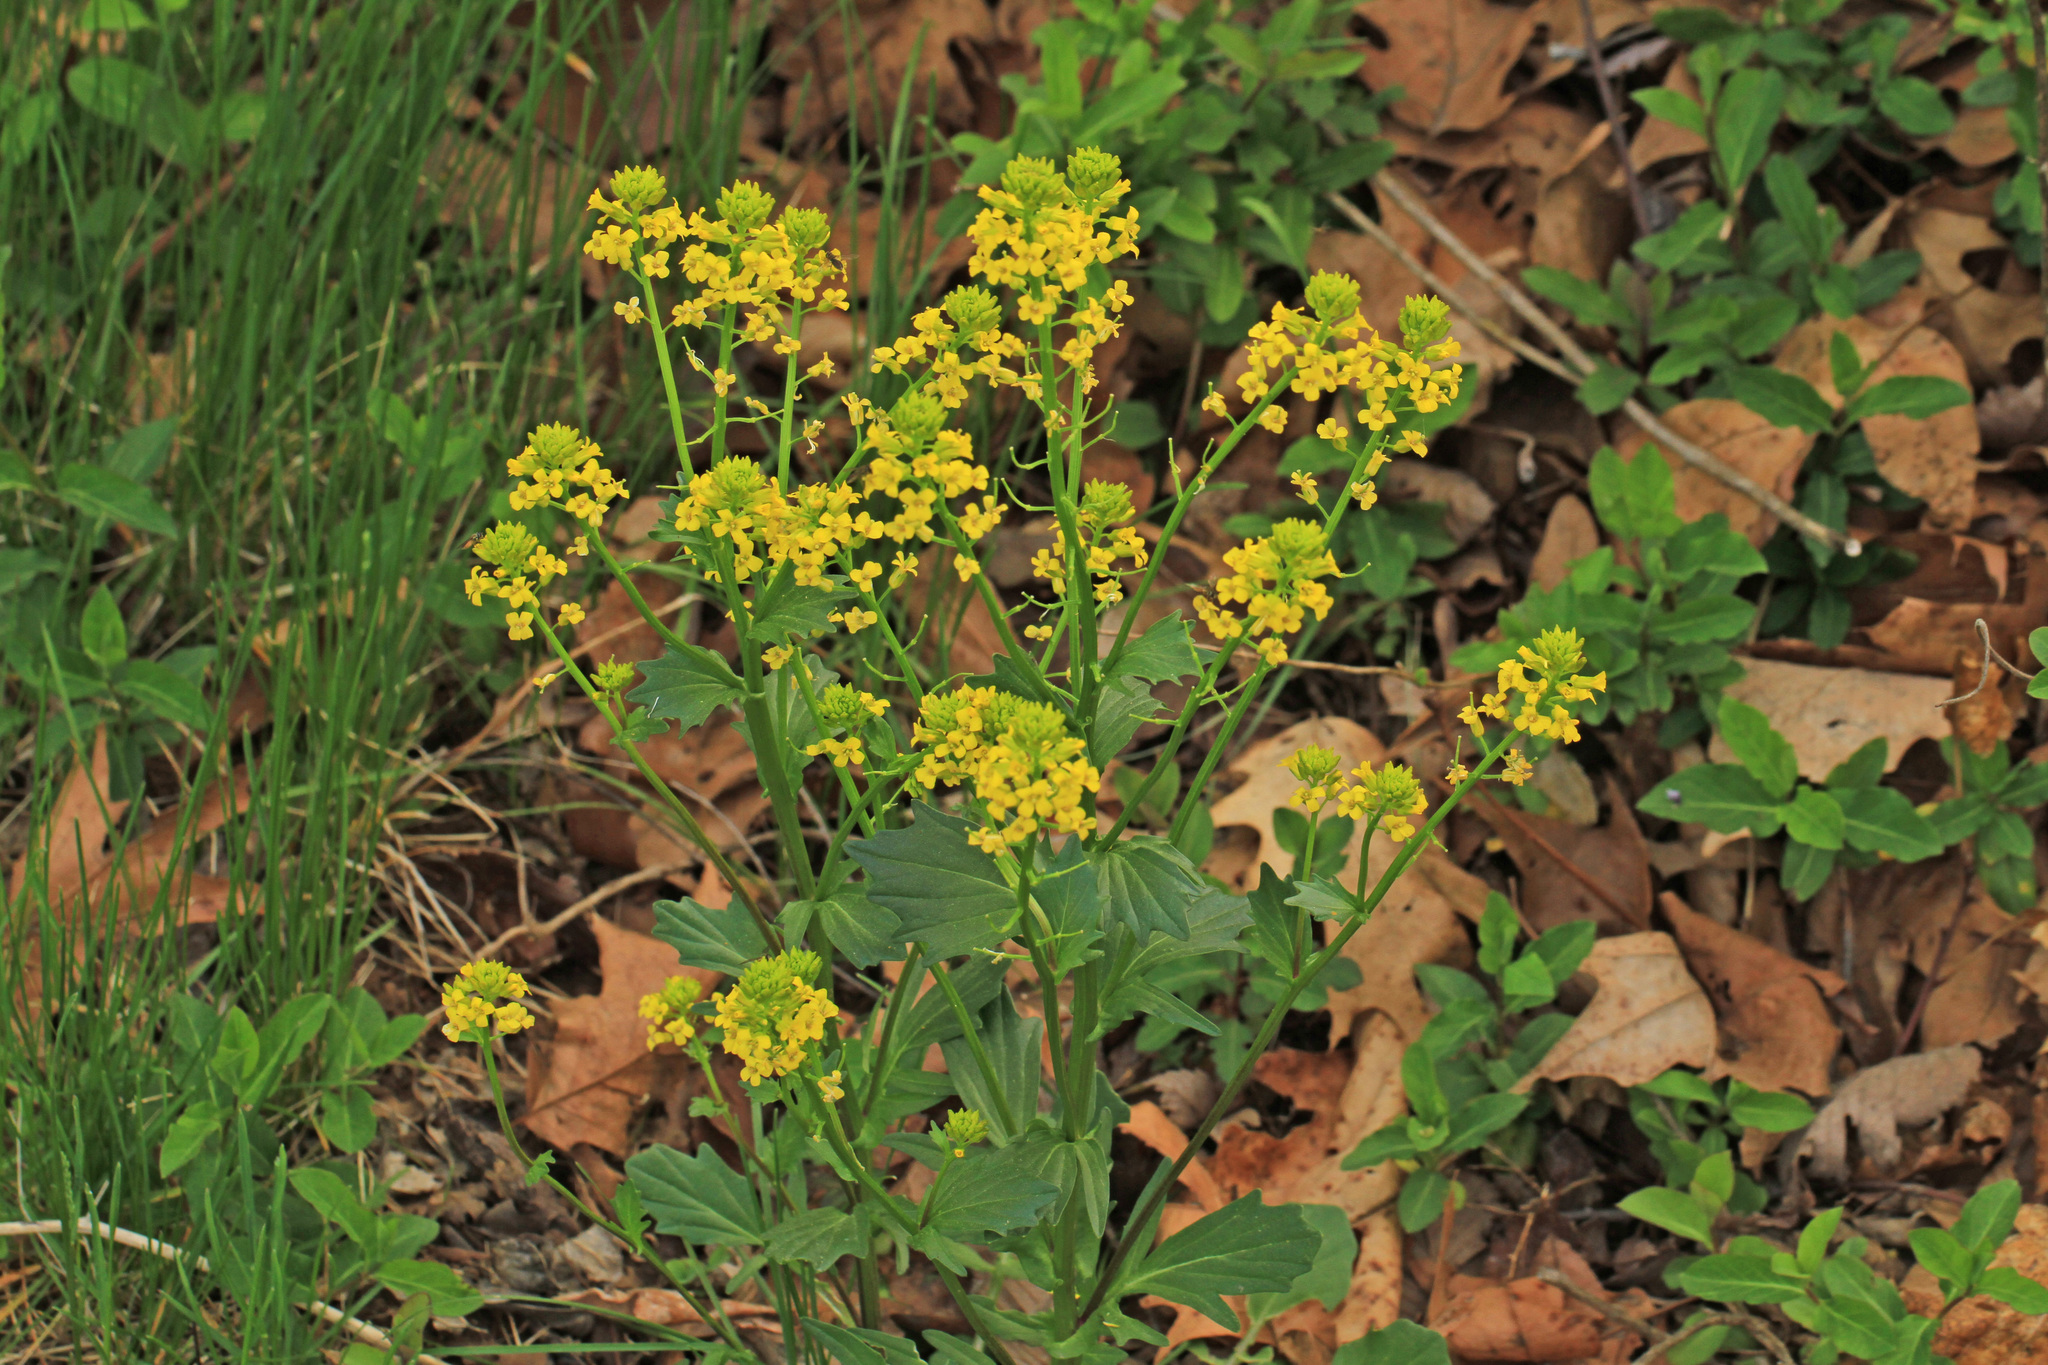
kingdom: Plantae
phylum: Tracheophyta
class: Magnoliopsida
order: Brassicales
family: Brassicaceae
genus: Barbarea
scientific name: Barbarea vulgaris
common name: Cressy-greens
